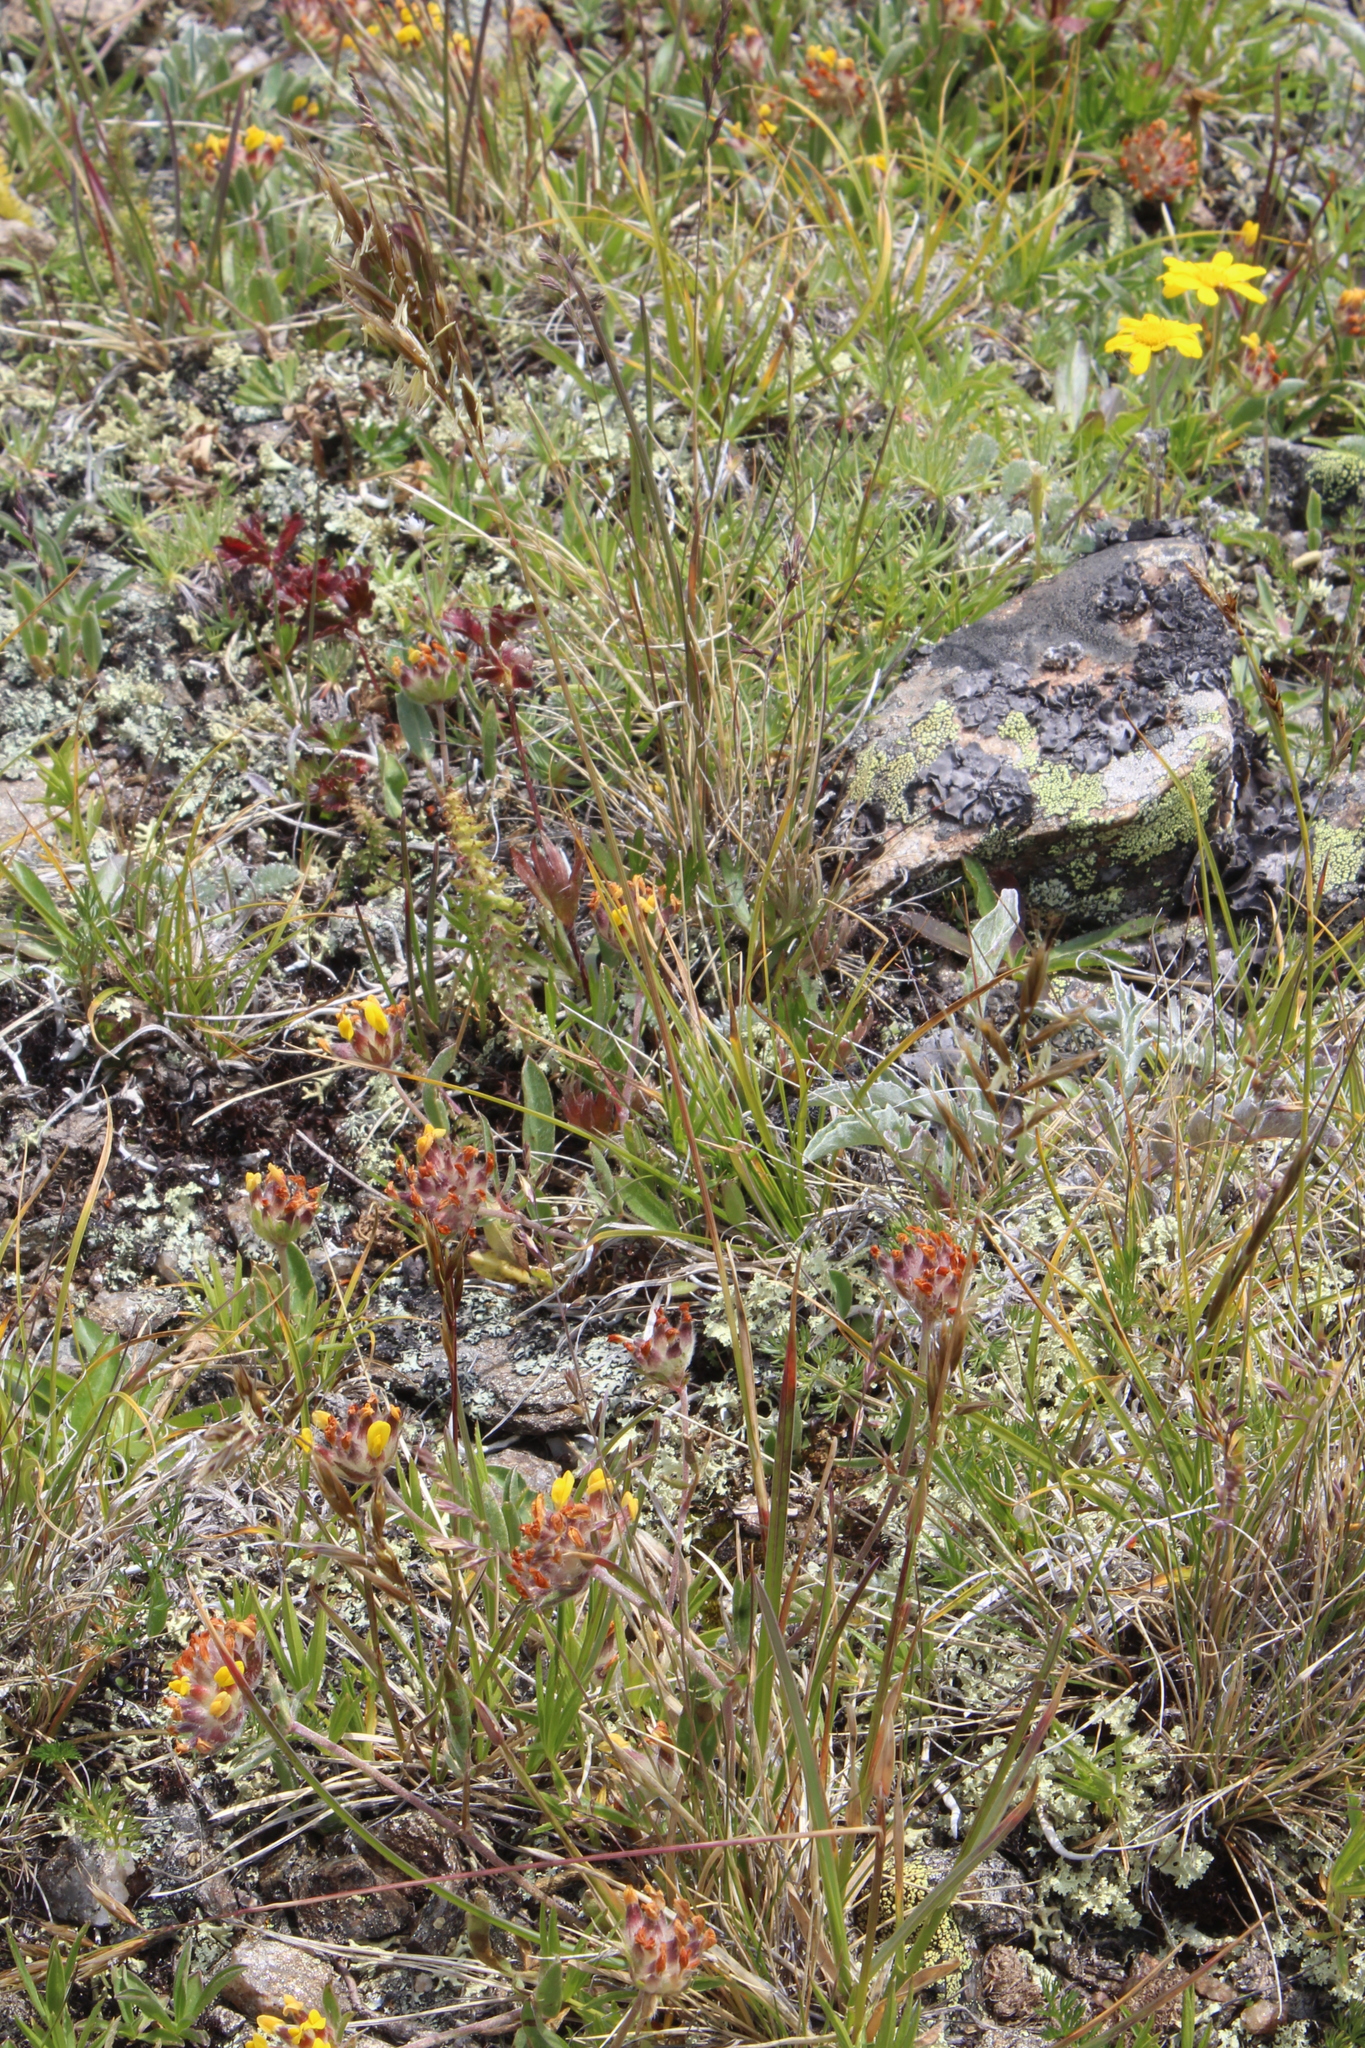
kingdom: Plantae
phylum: Tracheophyta
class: Liliopsida
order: Poales
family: Poaceae
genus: Helictochloa
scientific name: Helictochloa versicolor
